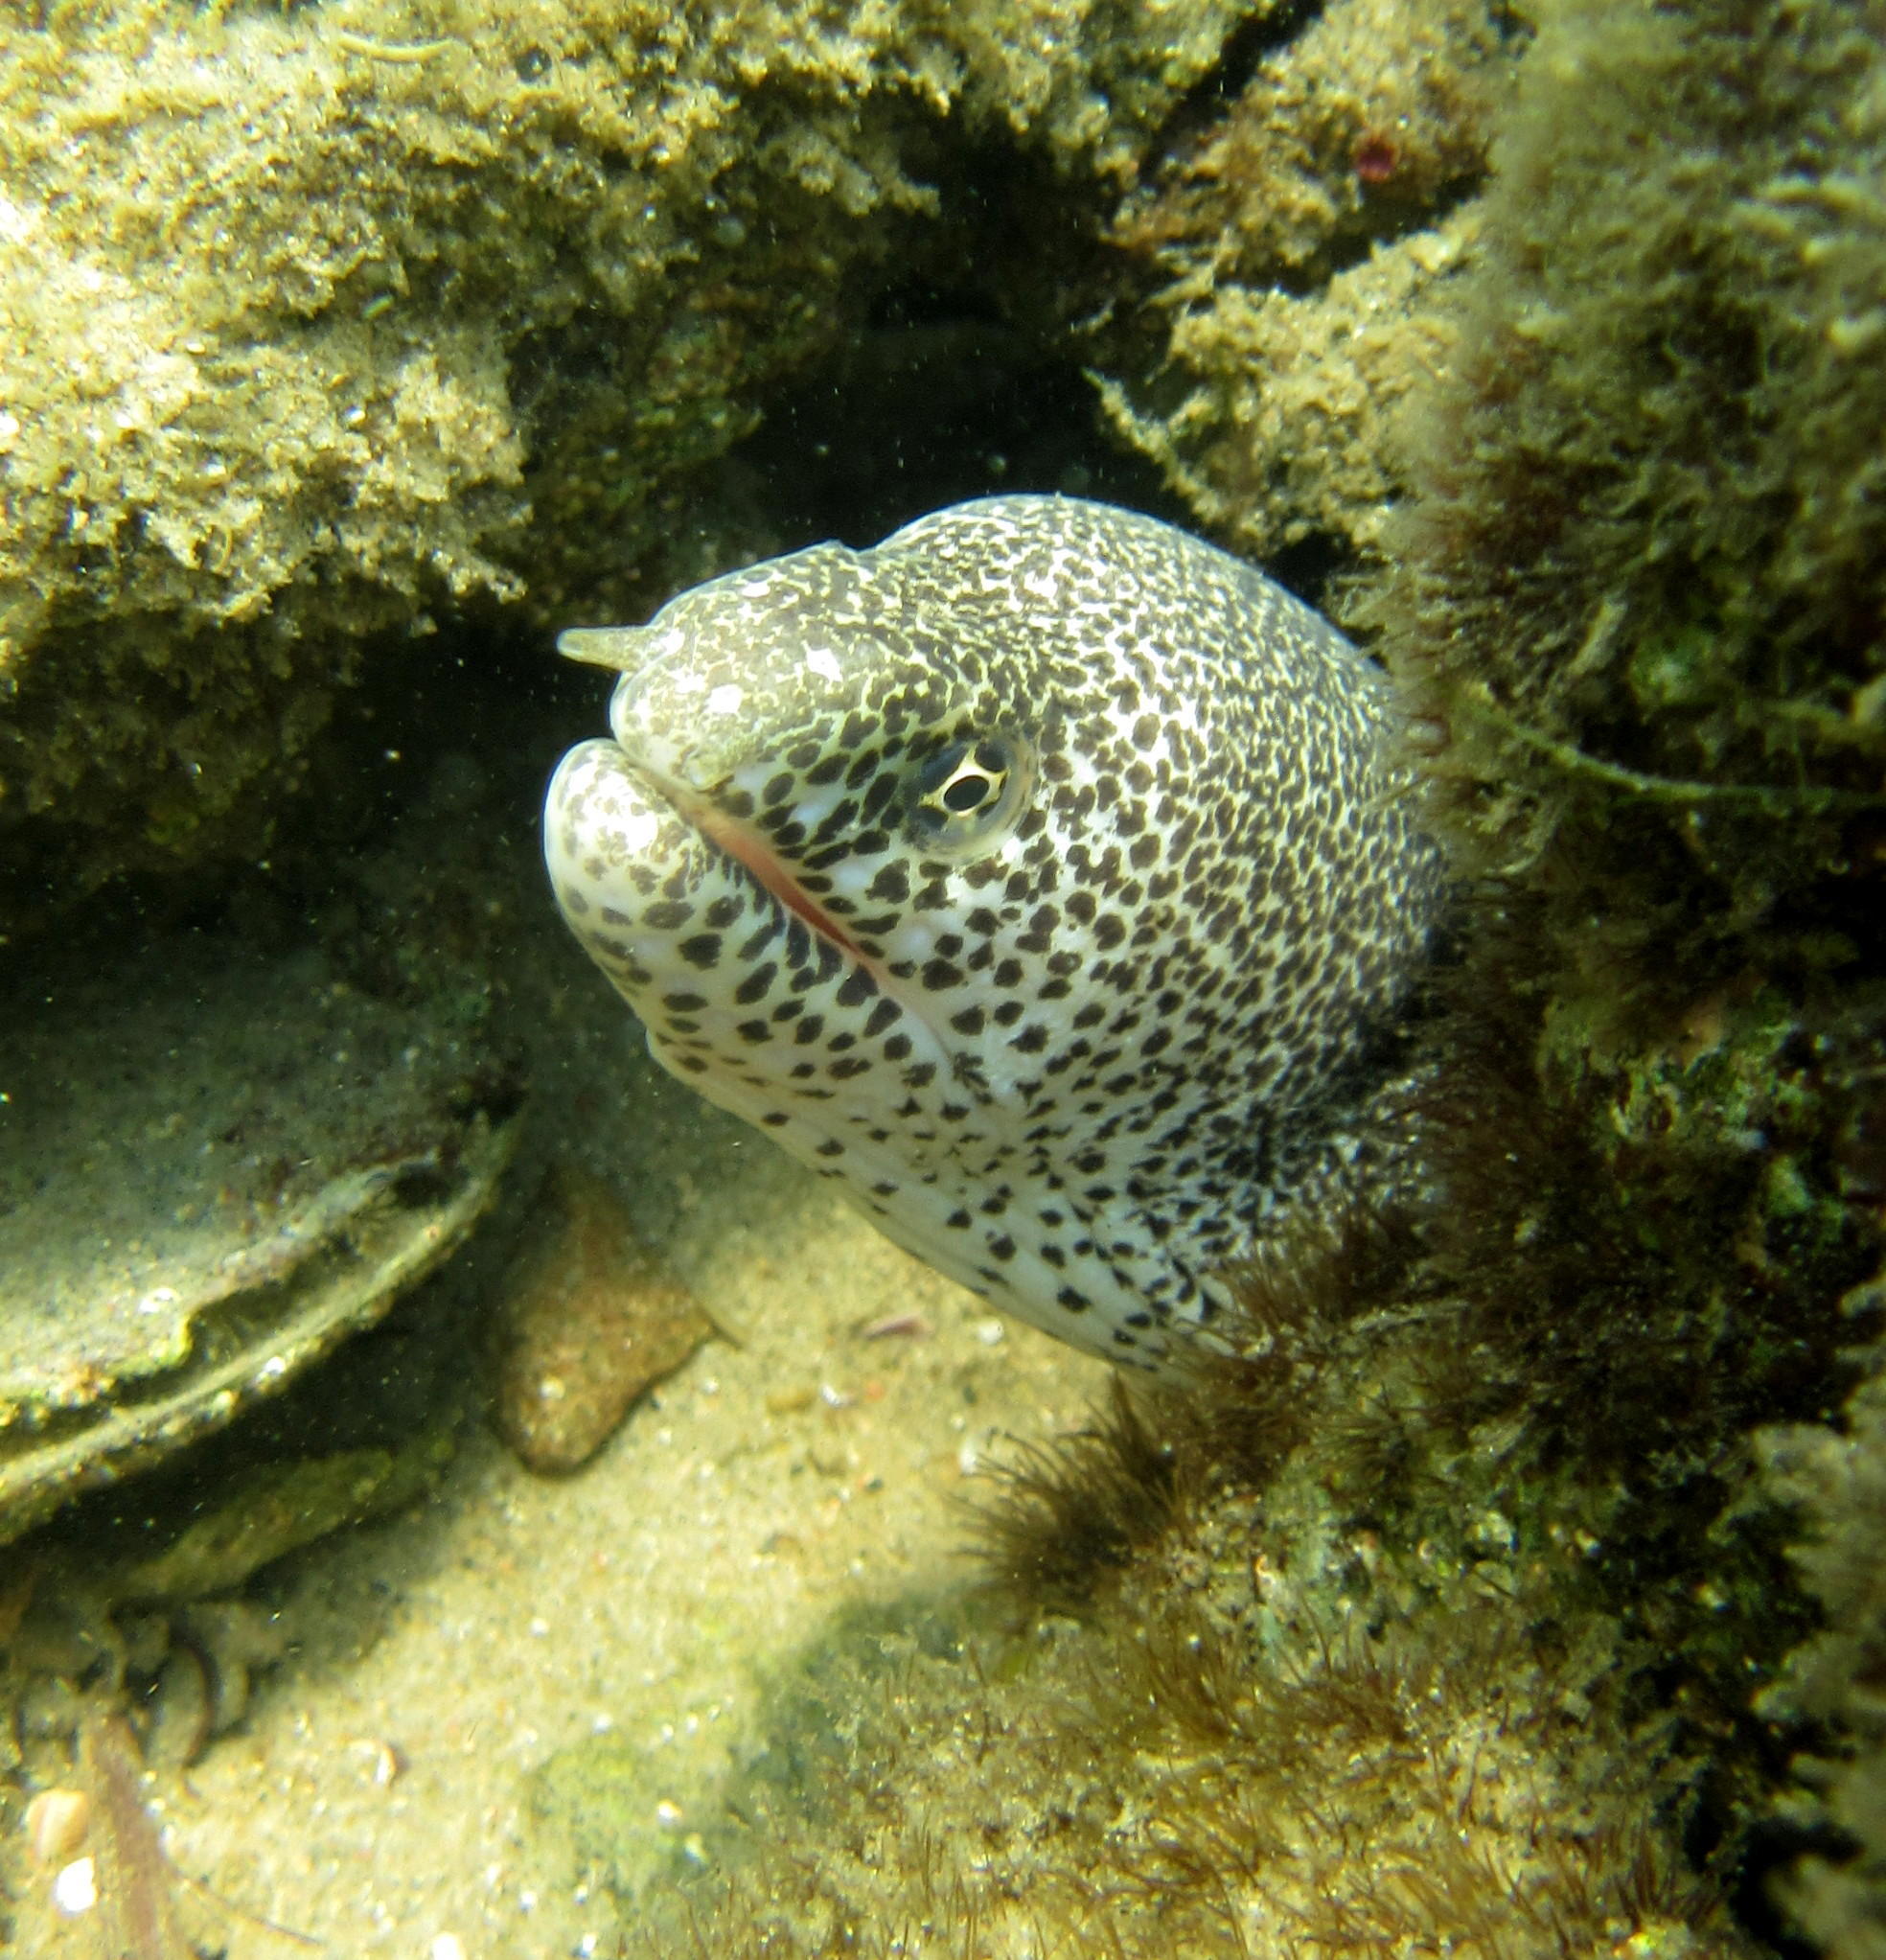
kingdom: Animalia
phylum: Chordata
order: Anguilliformes
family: Muraenidae
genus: Gymnothorax
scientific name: Gymnothorax pictus
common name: Peppered moray
